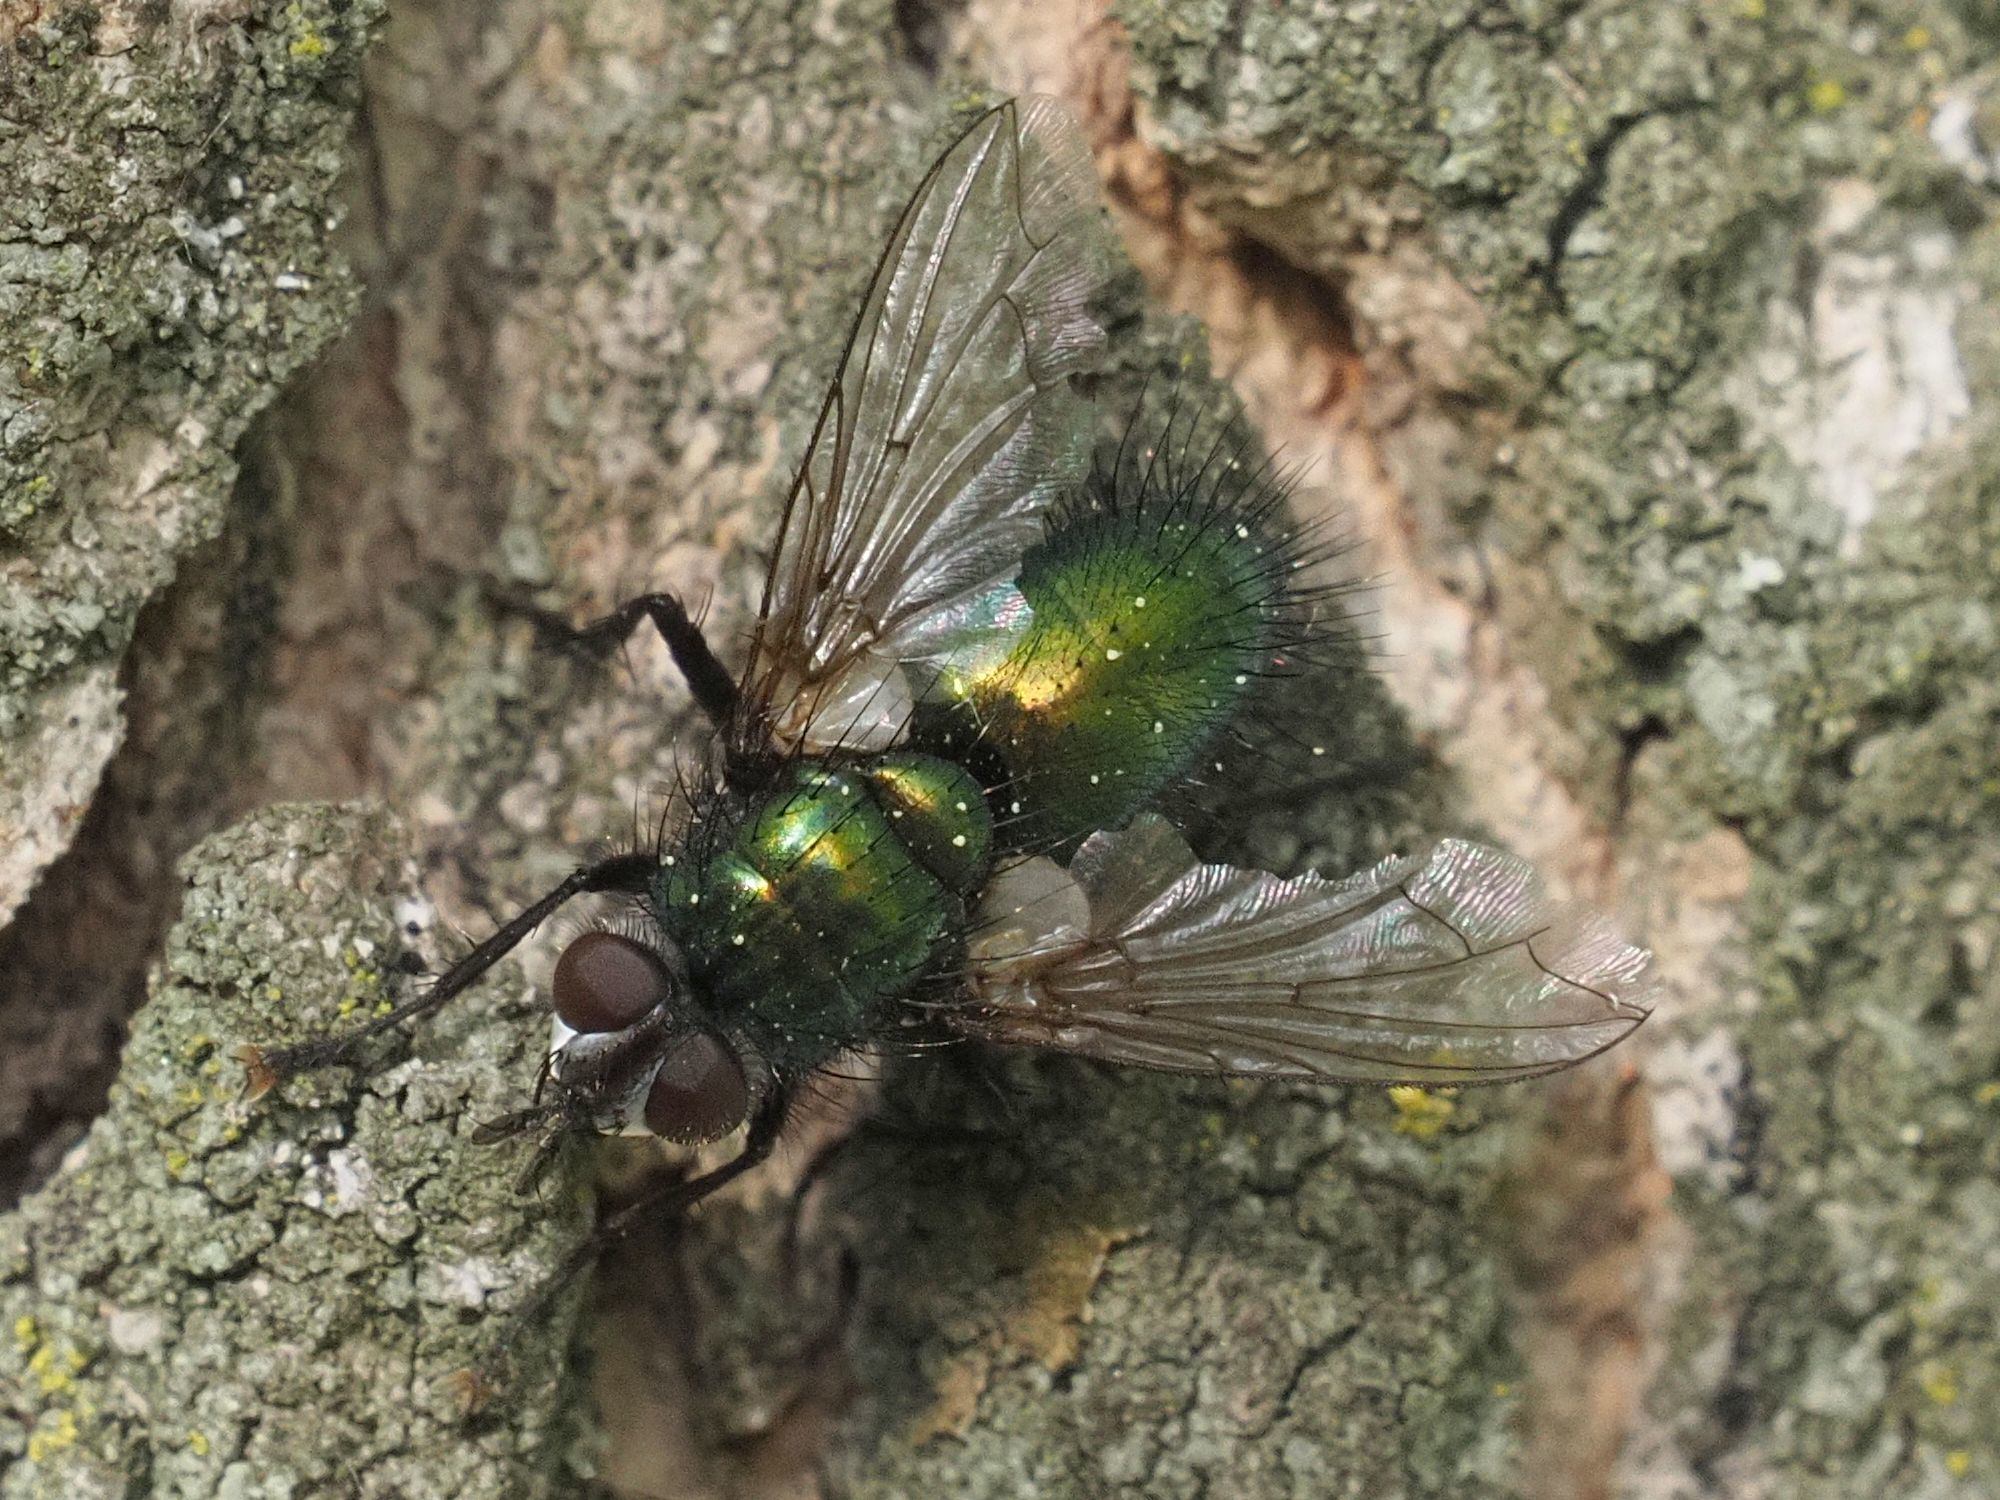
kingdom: Animalia
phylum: Arthropoda
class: Insecta
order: Diptera
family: Tachinidae
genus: Gymnocheta
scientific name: Gymnocheta viridis
